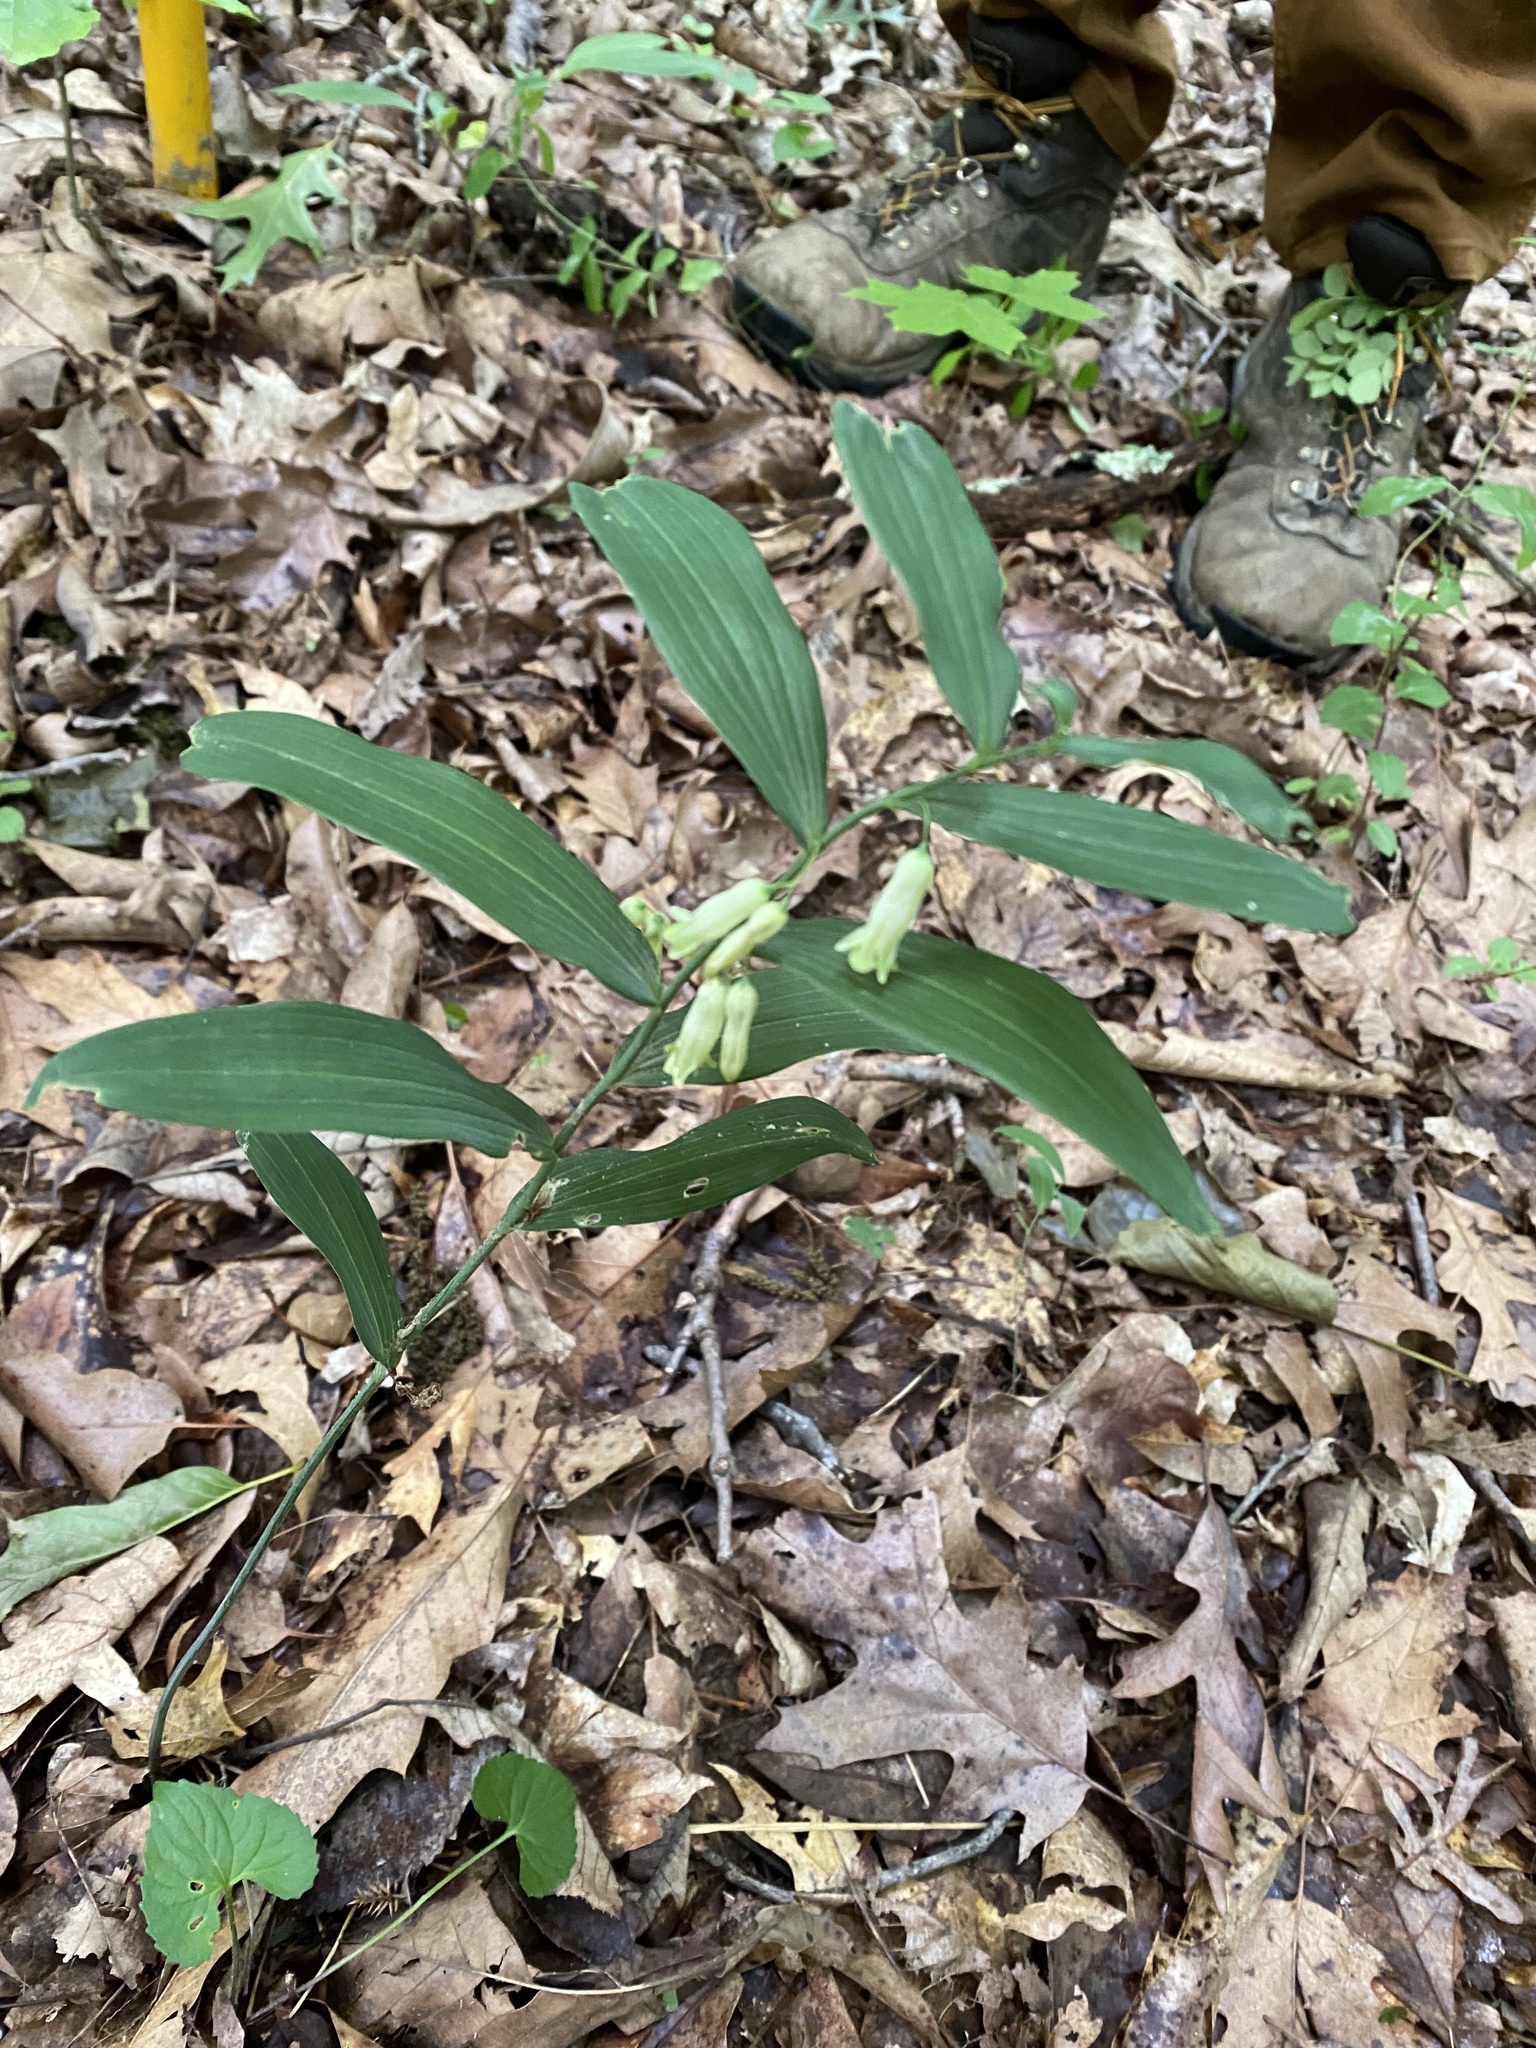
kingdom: Plantae
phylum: Tracheophyta
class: Liliopsida
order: Asparagales
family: Asparagaceae
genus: Polygonatum
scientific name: Polygonatum biflorum
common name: American solomon's-seal
